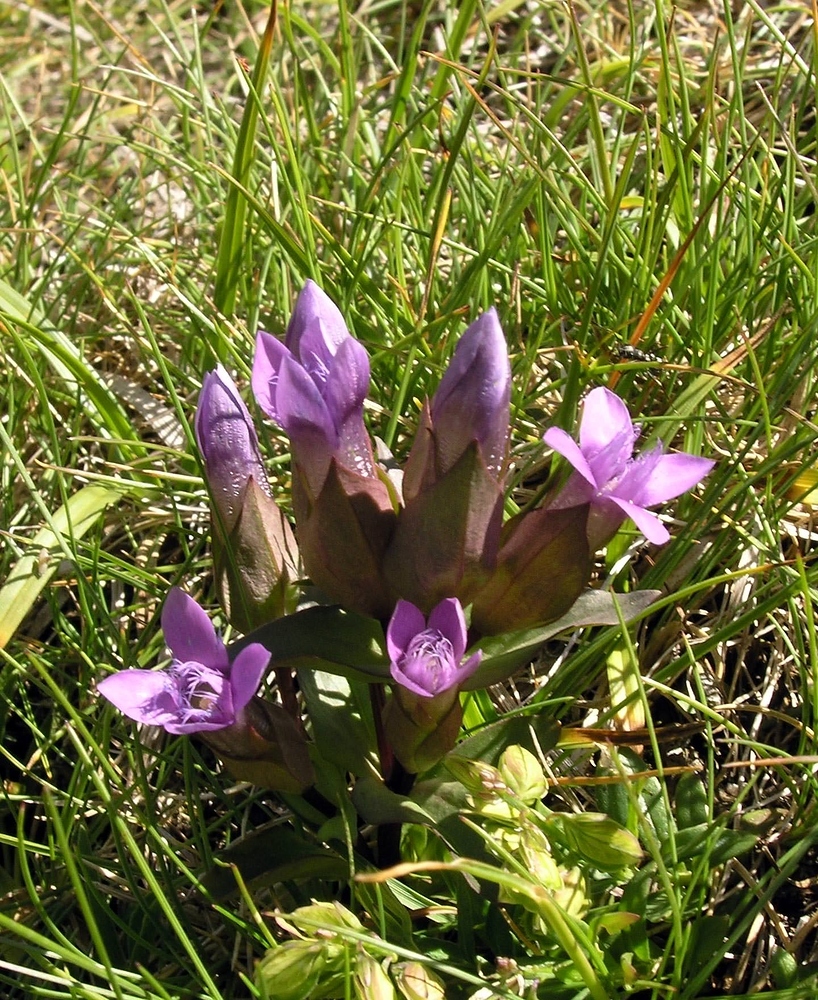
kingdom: Plantae
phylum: Tracheophyta
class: Magnoliopsida
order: Gentianales
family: Gentianaceae
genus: Gentianella
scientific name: Gentianella campestris
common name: Field gentian
